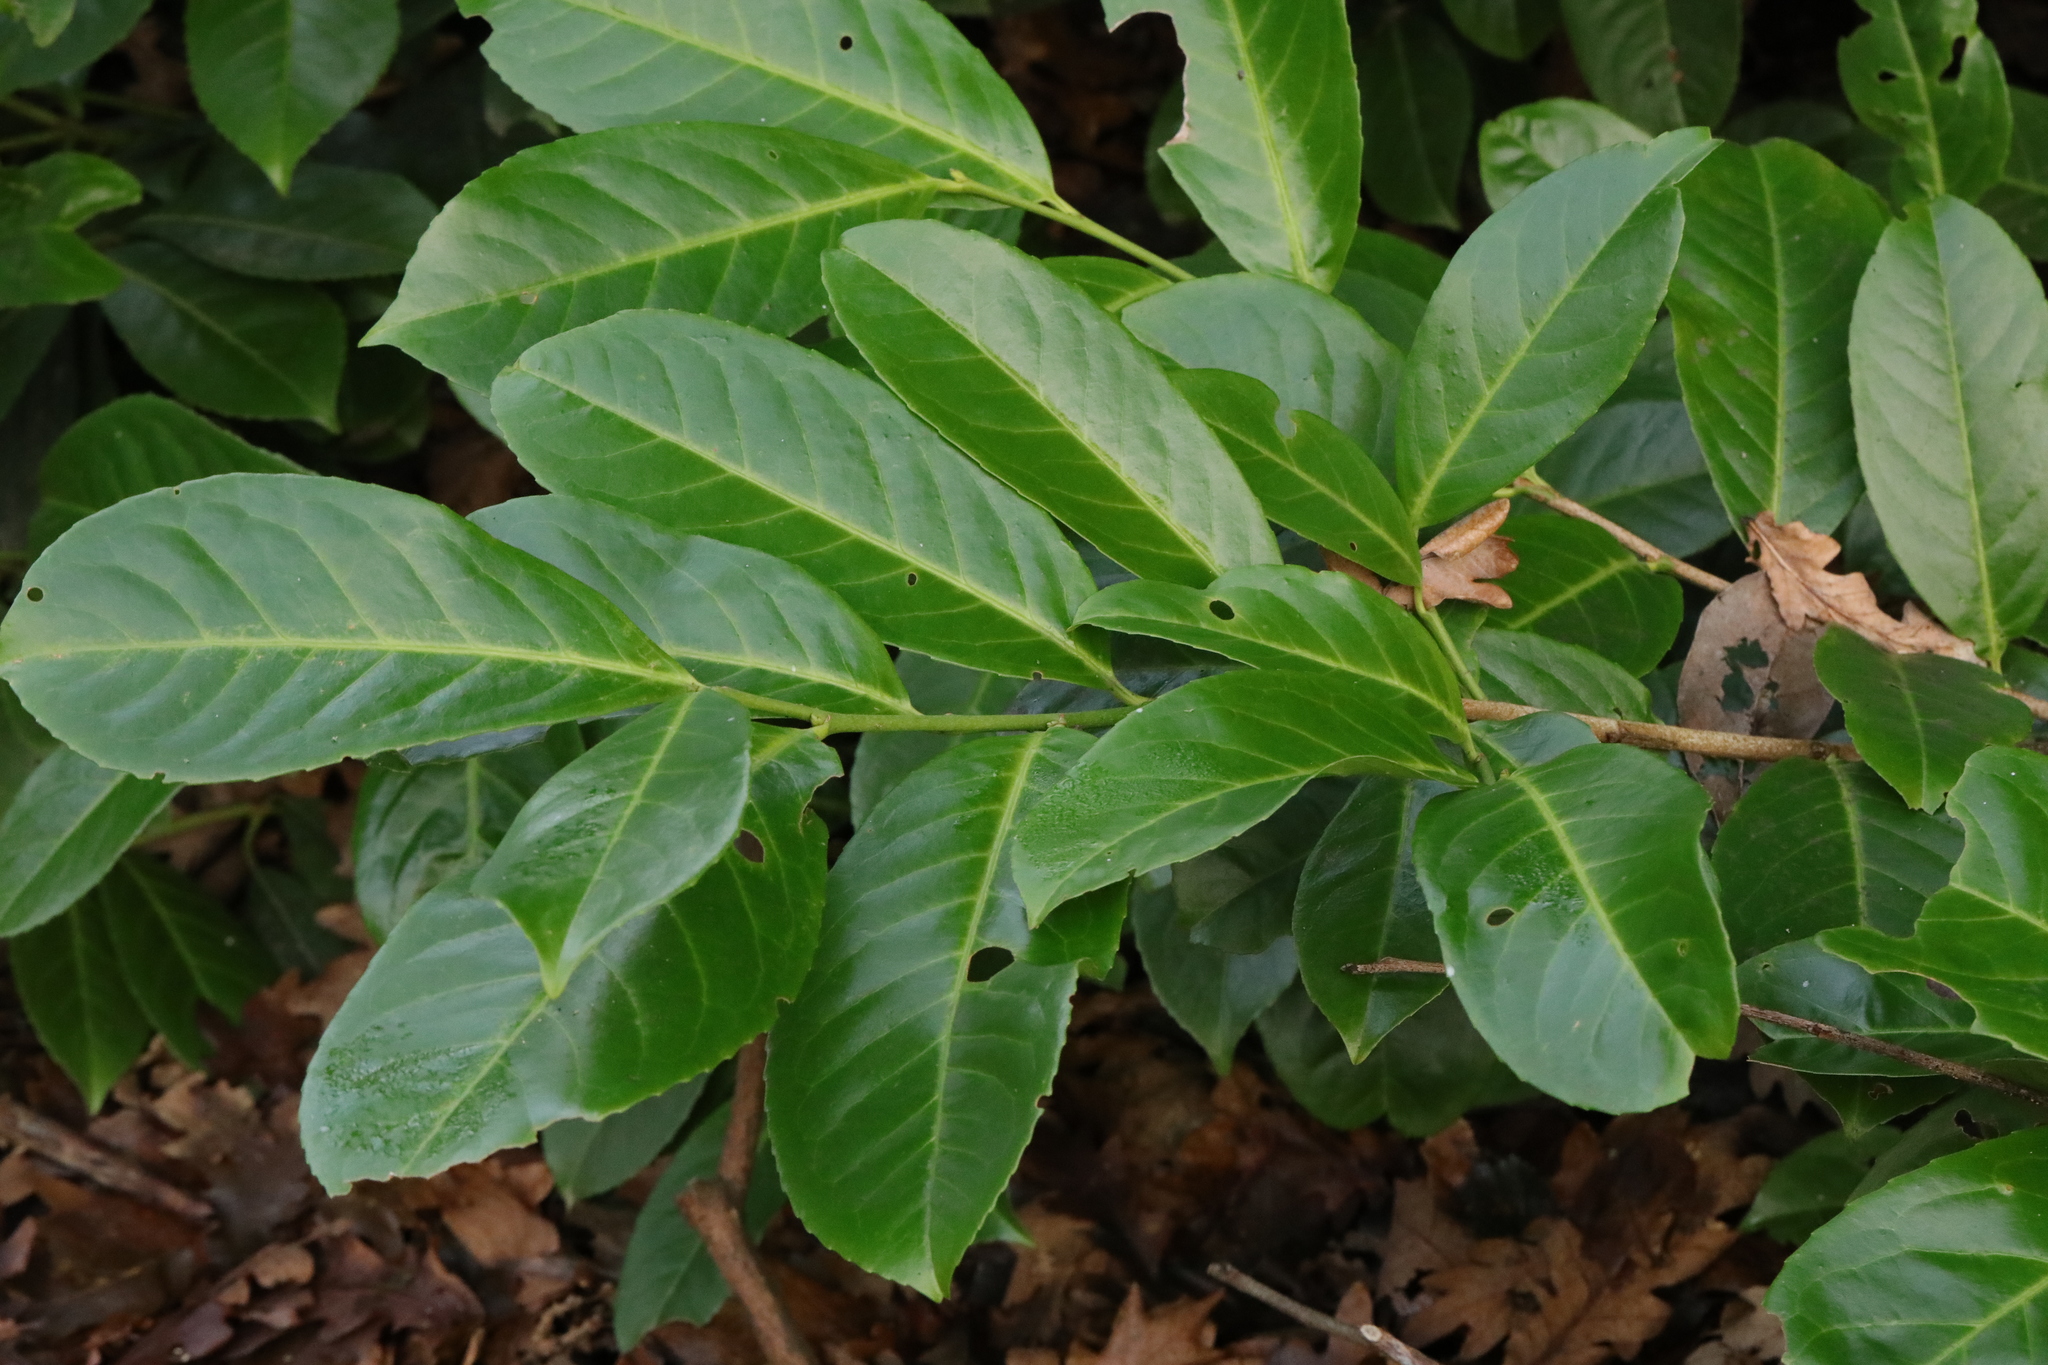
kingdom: Plantae
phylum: Tracheophyta
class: Magnoliopsida
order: Rosales
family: Rosaceae
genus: Prunus
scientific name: Prunus laurocerasus
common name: Cherry laurel
